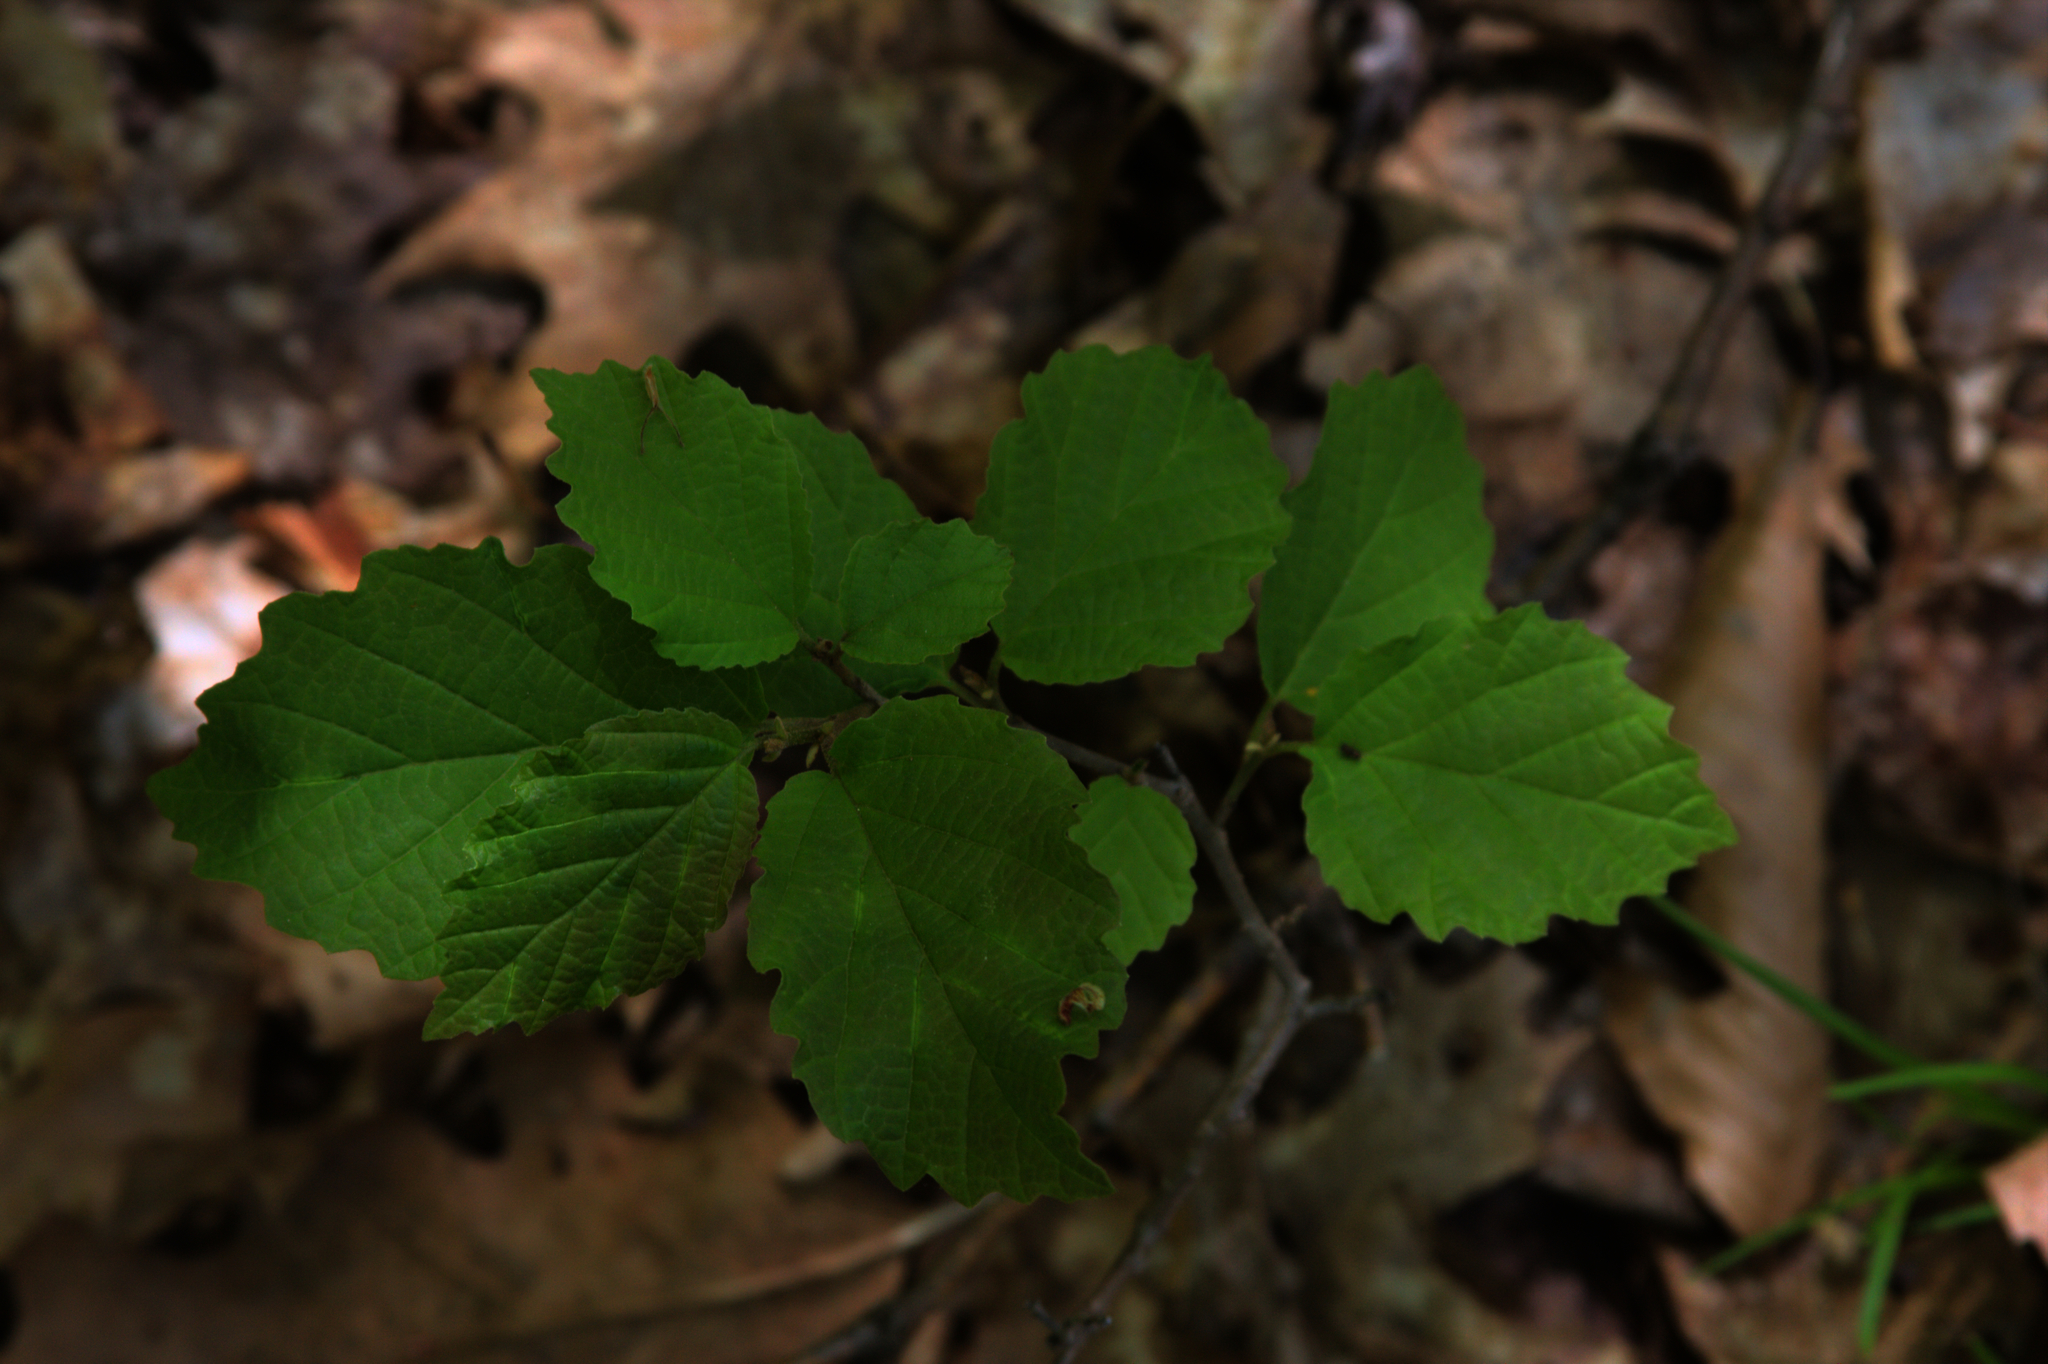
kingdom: Plantae
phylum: Tracheophyta
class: Magnoliopsida
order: Saxifragales
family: Hamamelidaceae
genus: Hamamelis
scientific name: Hamamelis virginiana
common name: Witch-hazel
